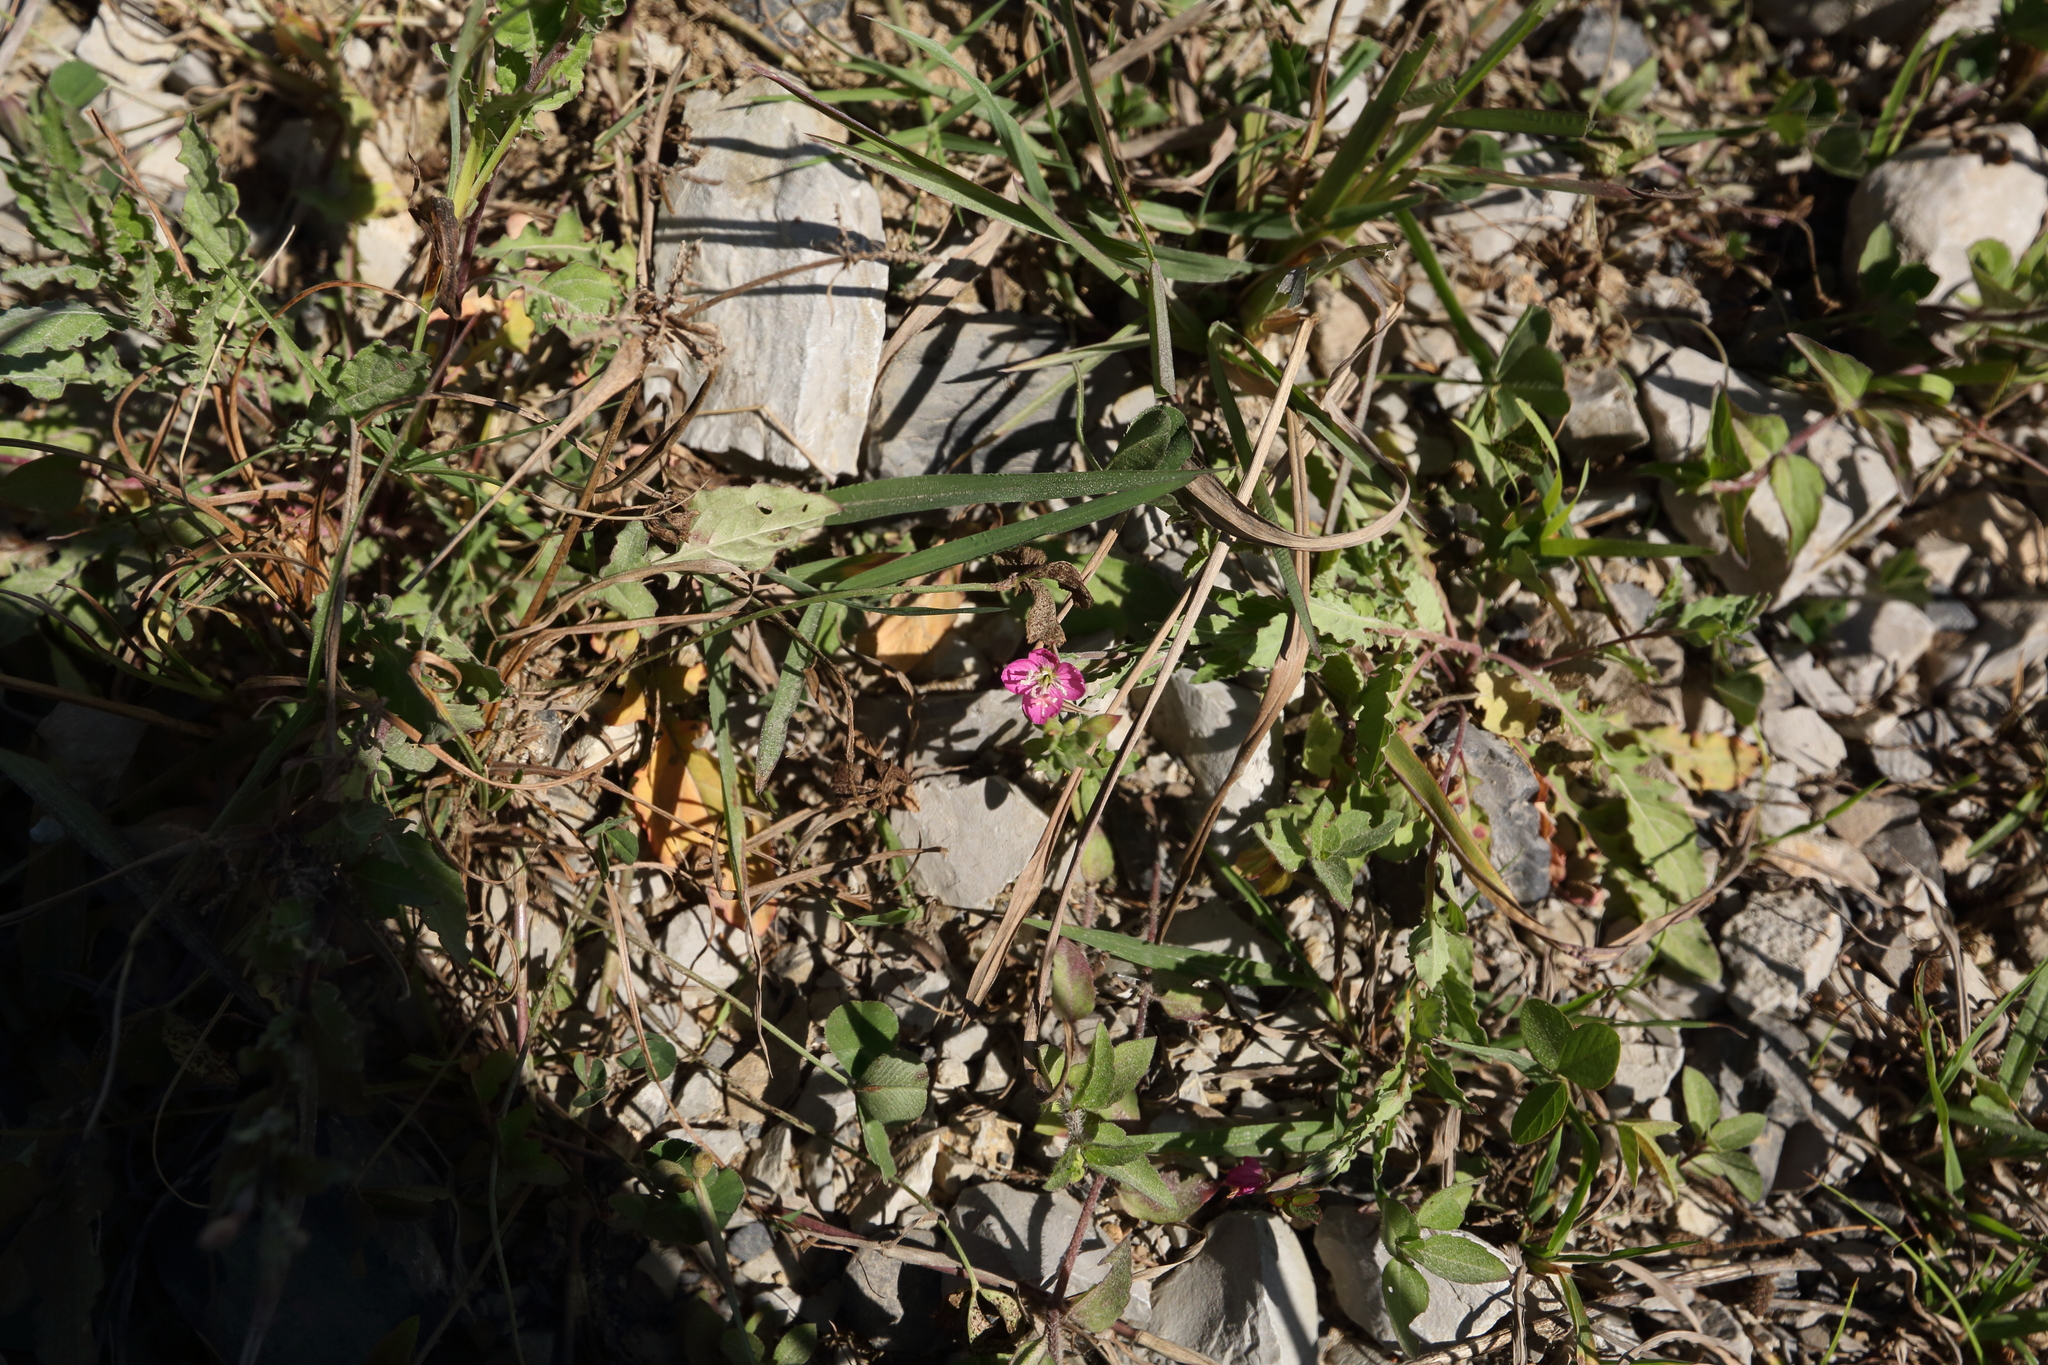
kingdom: Plantae
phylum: Tracheophyta
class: Magnoliopsida
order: Myrtales
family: Onagraceae
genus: Oenothera
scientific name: Oenothera rosea
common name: Rosy evening-primrose
